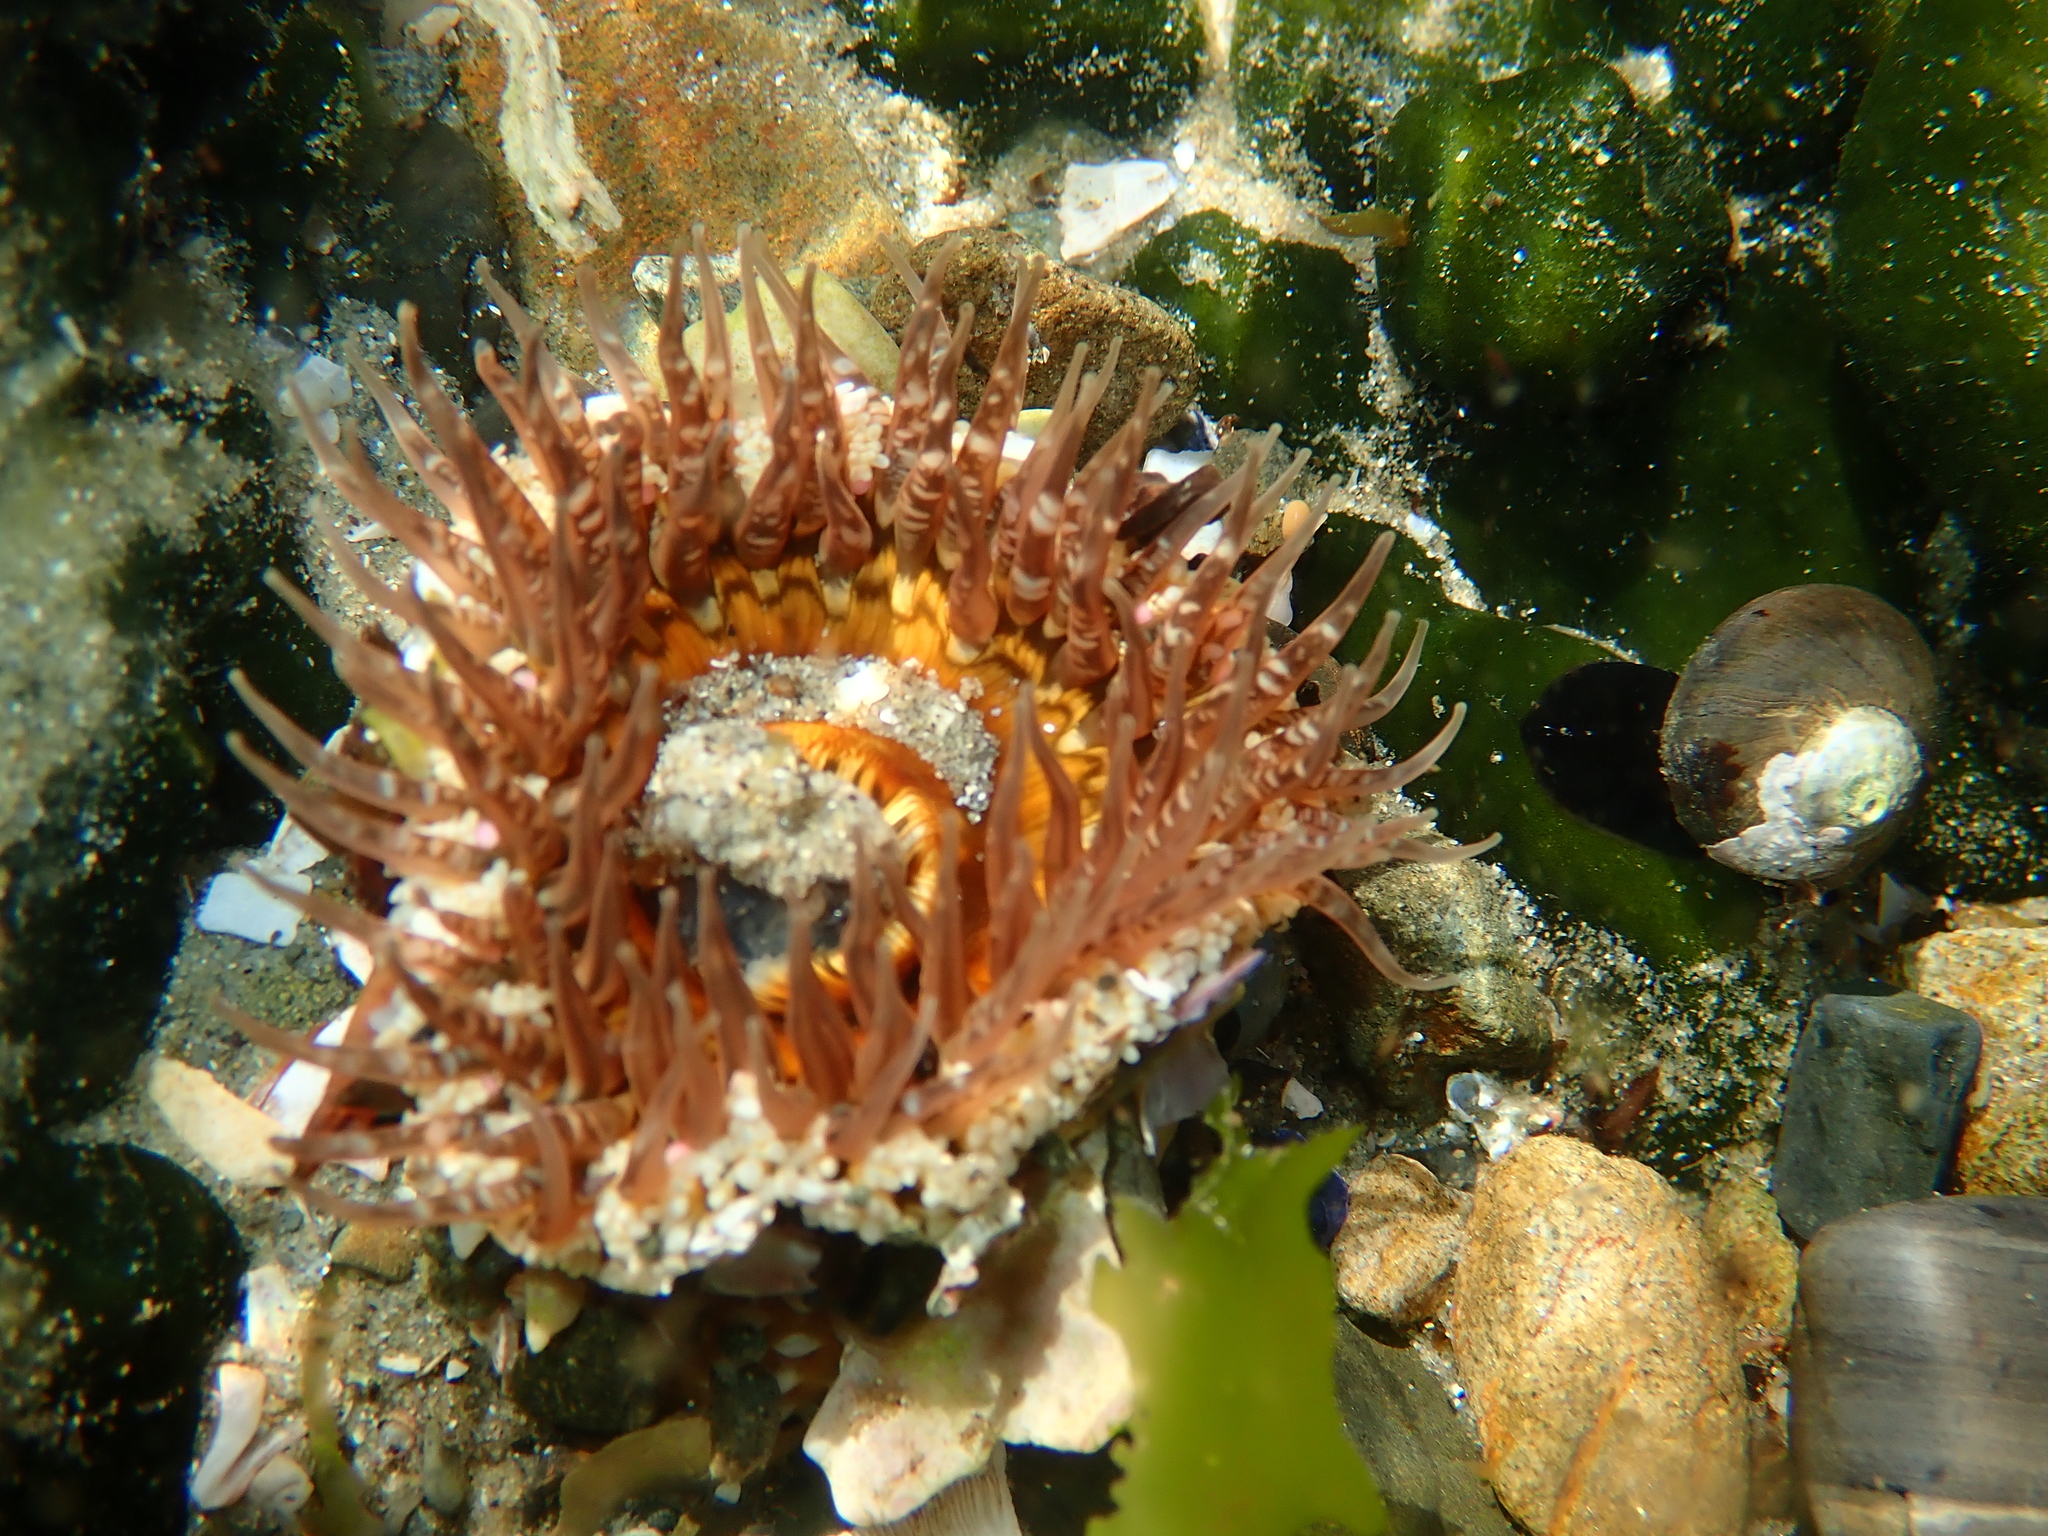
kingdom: Animalia
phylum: Cnidaria
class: Anthozoa
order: Actiniaria
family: Actiniidae
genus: Oulactis
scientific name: Oulactis muscosa
